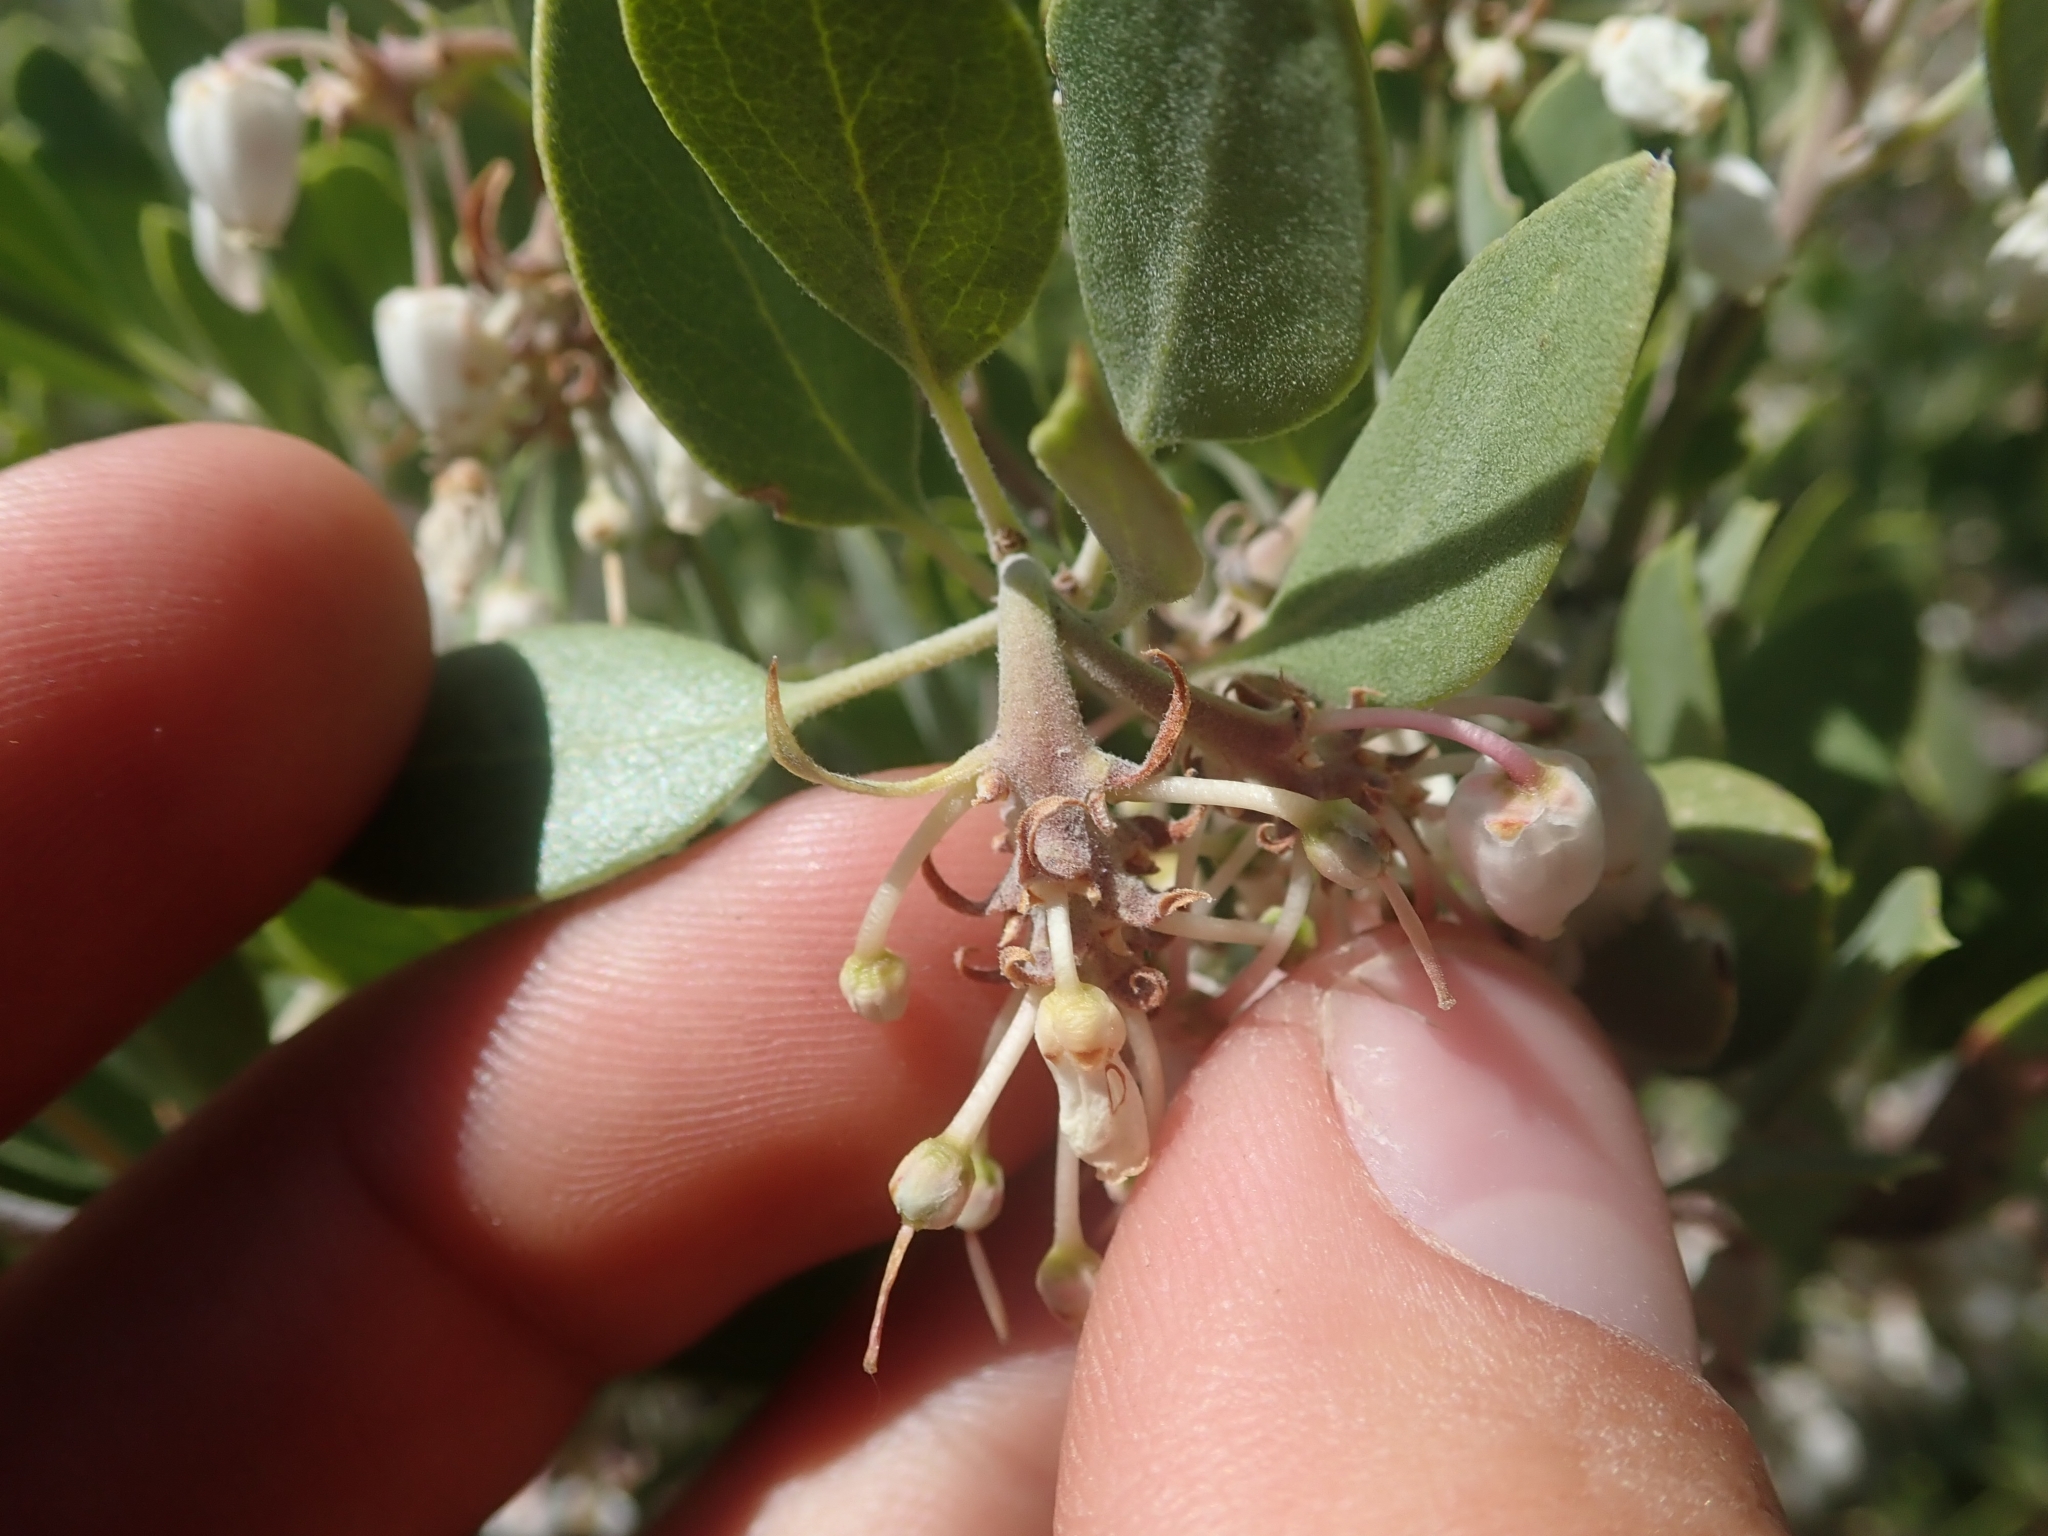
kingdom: Plantae
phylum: Tracheophyta
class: Magnoliopsida
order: Ericales
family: Ericaceae
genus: Arctostaphylos
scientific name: Arctostaphylos pungens
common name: Mexican manzanita
